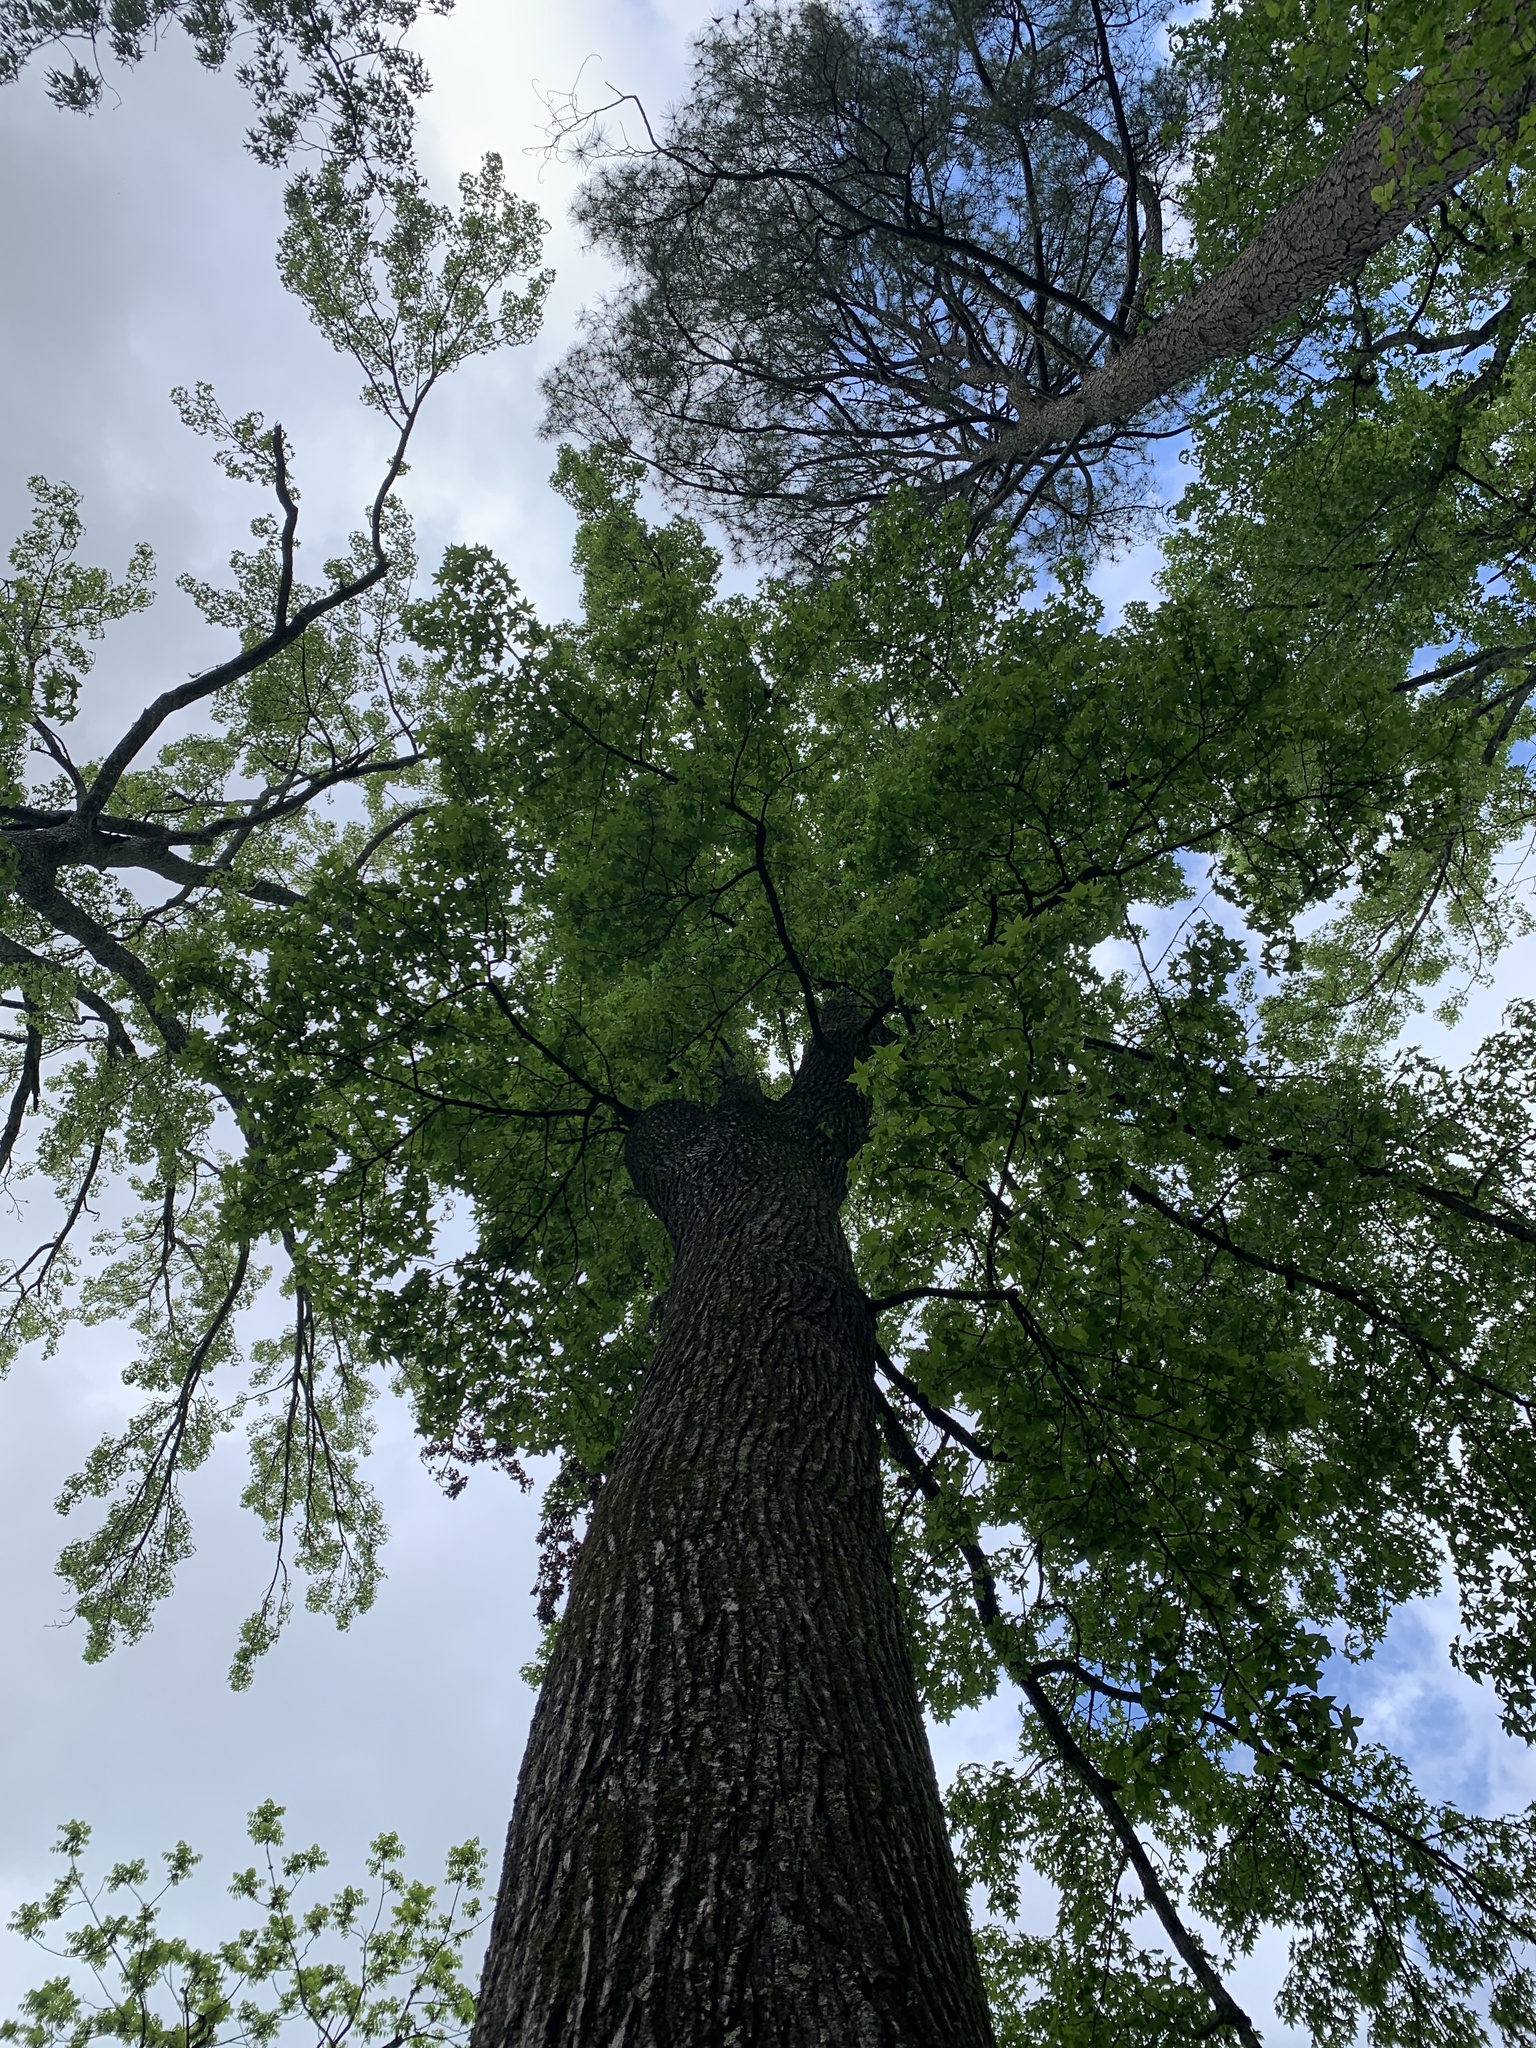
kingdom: Plantae
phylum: Tracheophyta
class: Magnoliopsida
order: Saxifragales
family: Altingiaceae
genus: Liquidambar
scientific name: Liquidambar styraciflua
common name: Sweet gum
